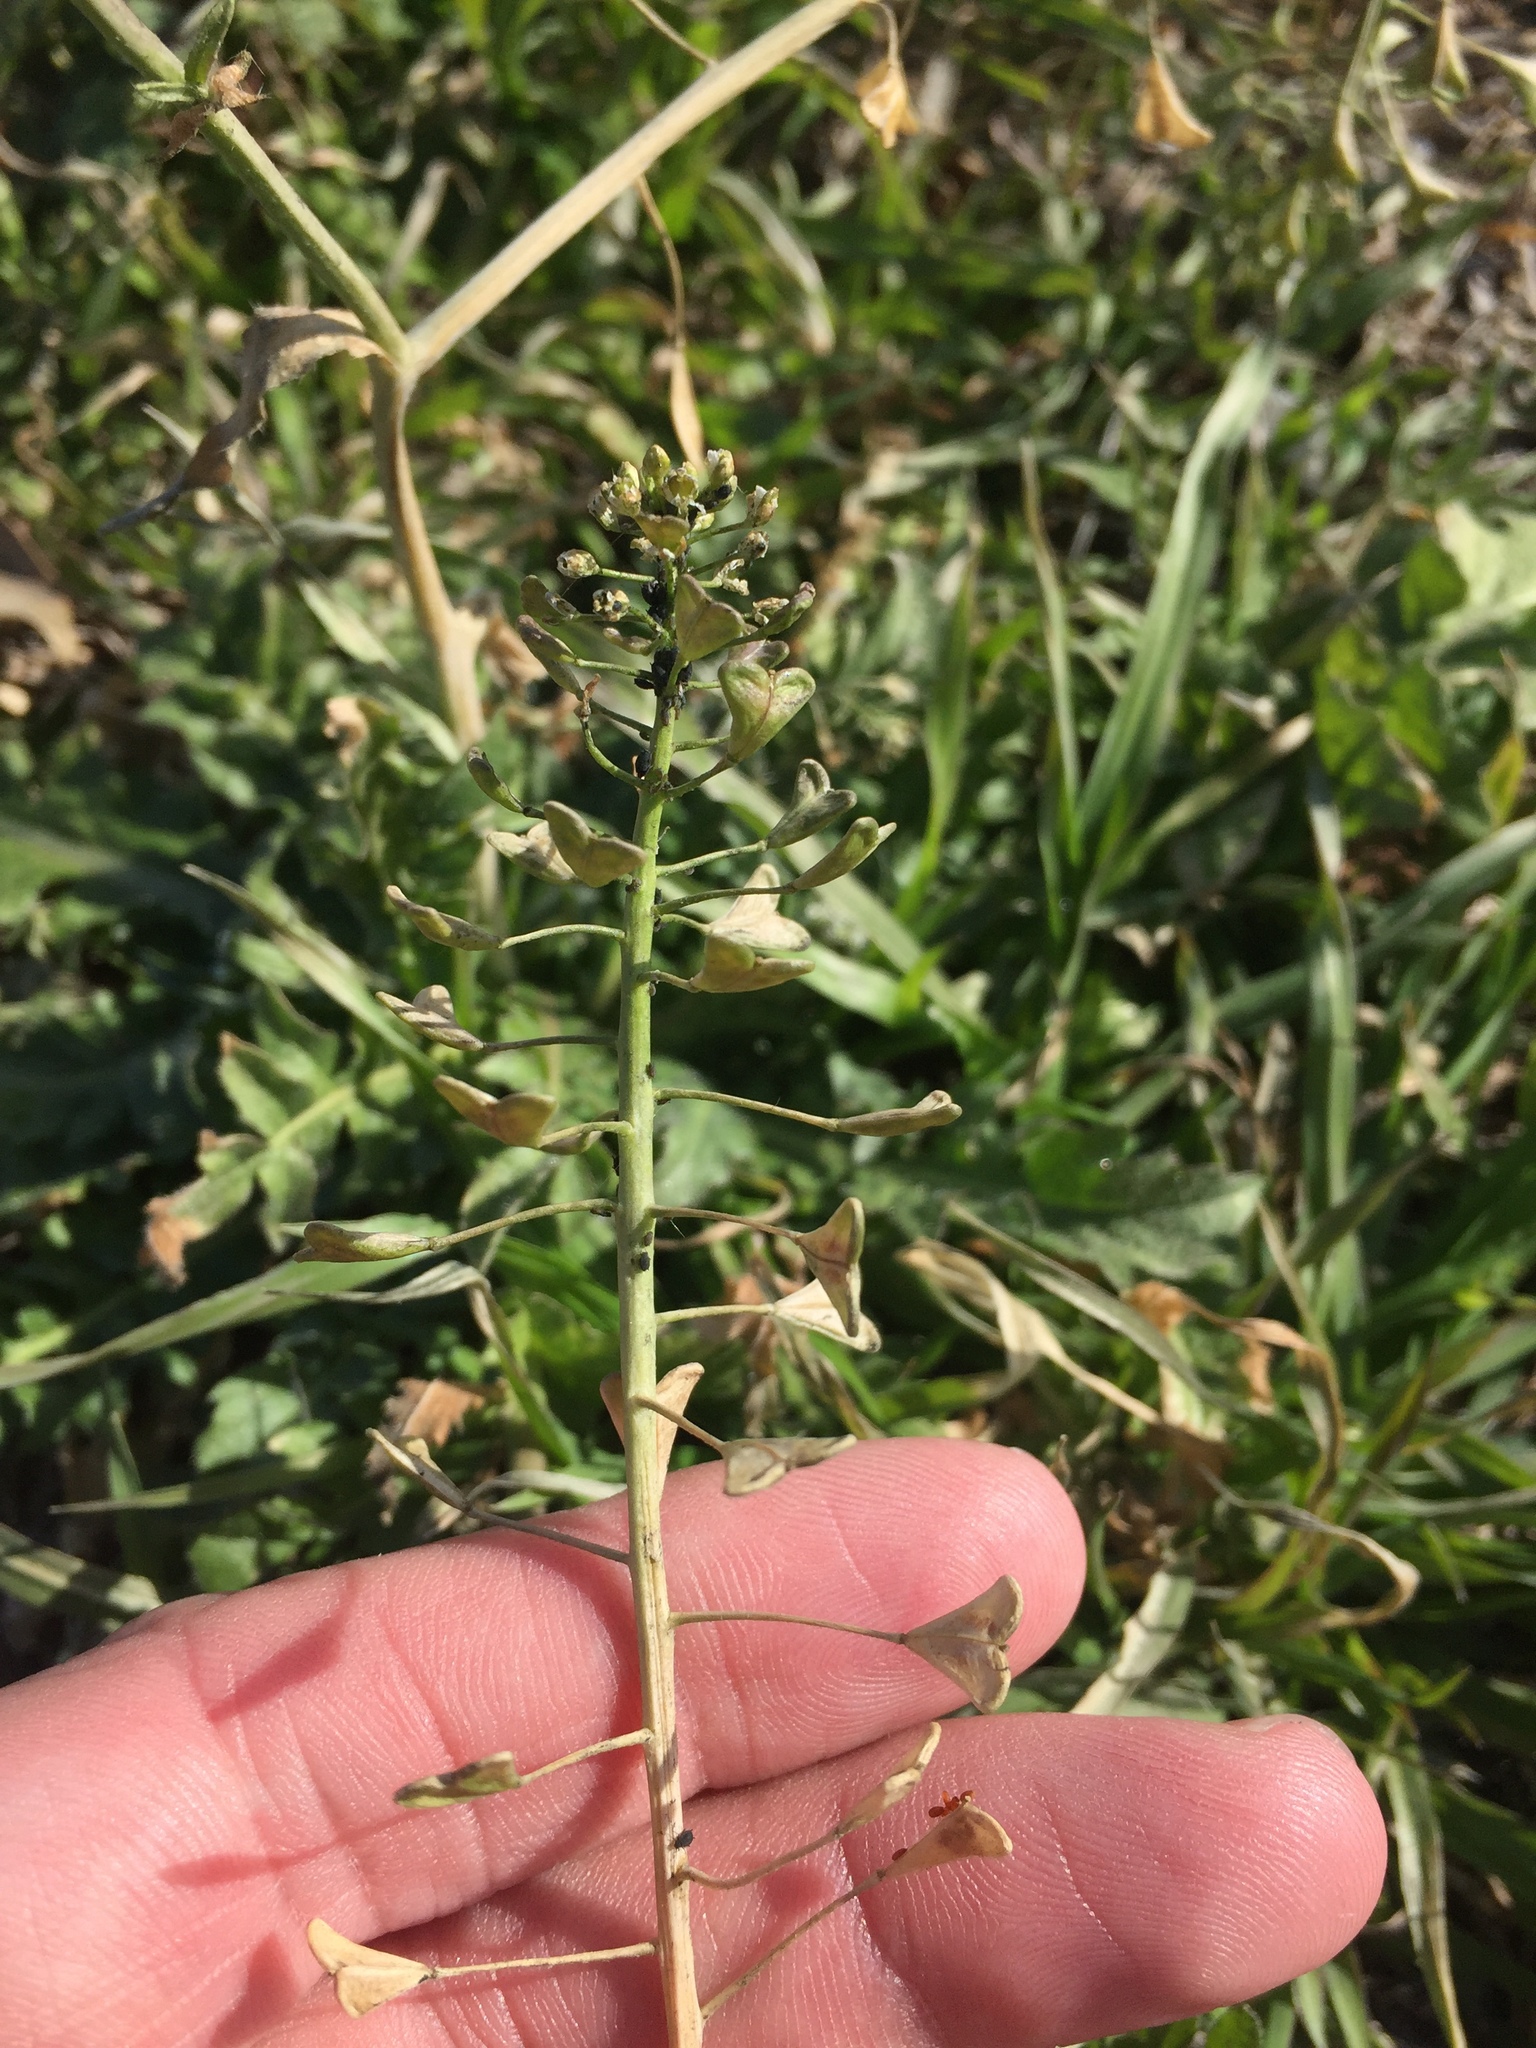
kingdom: Plantae
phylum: Tracheophyta
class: Magnoliopsida
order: Brassicales
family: Brassicaceae
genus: Capsella
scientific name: Capsella bursa-pastoris
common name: Shepherd's purse
